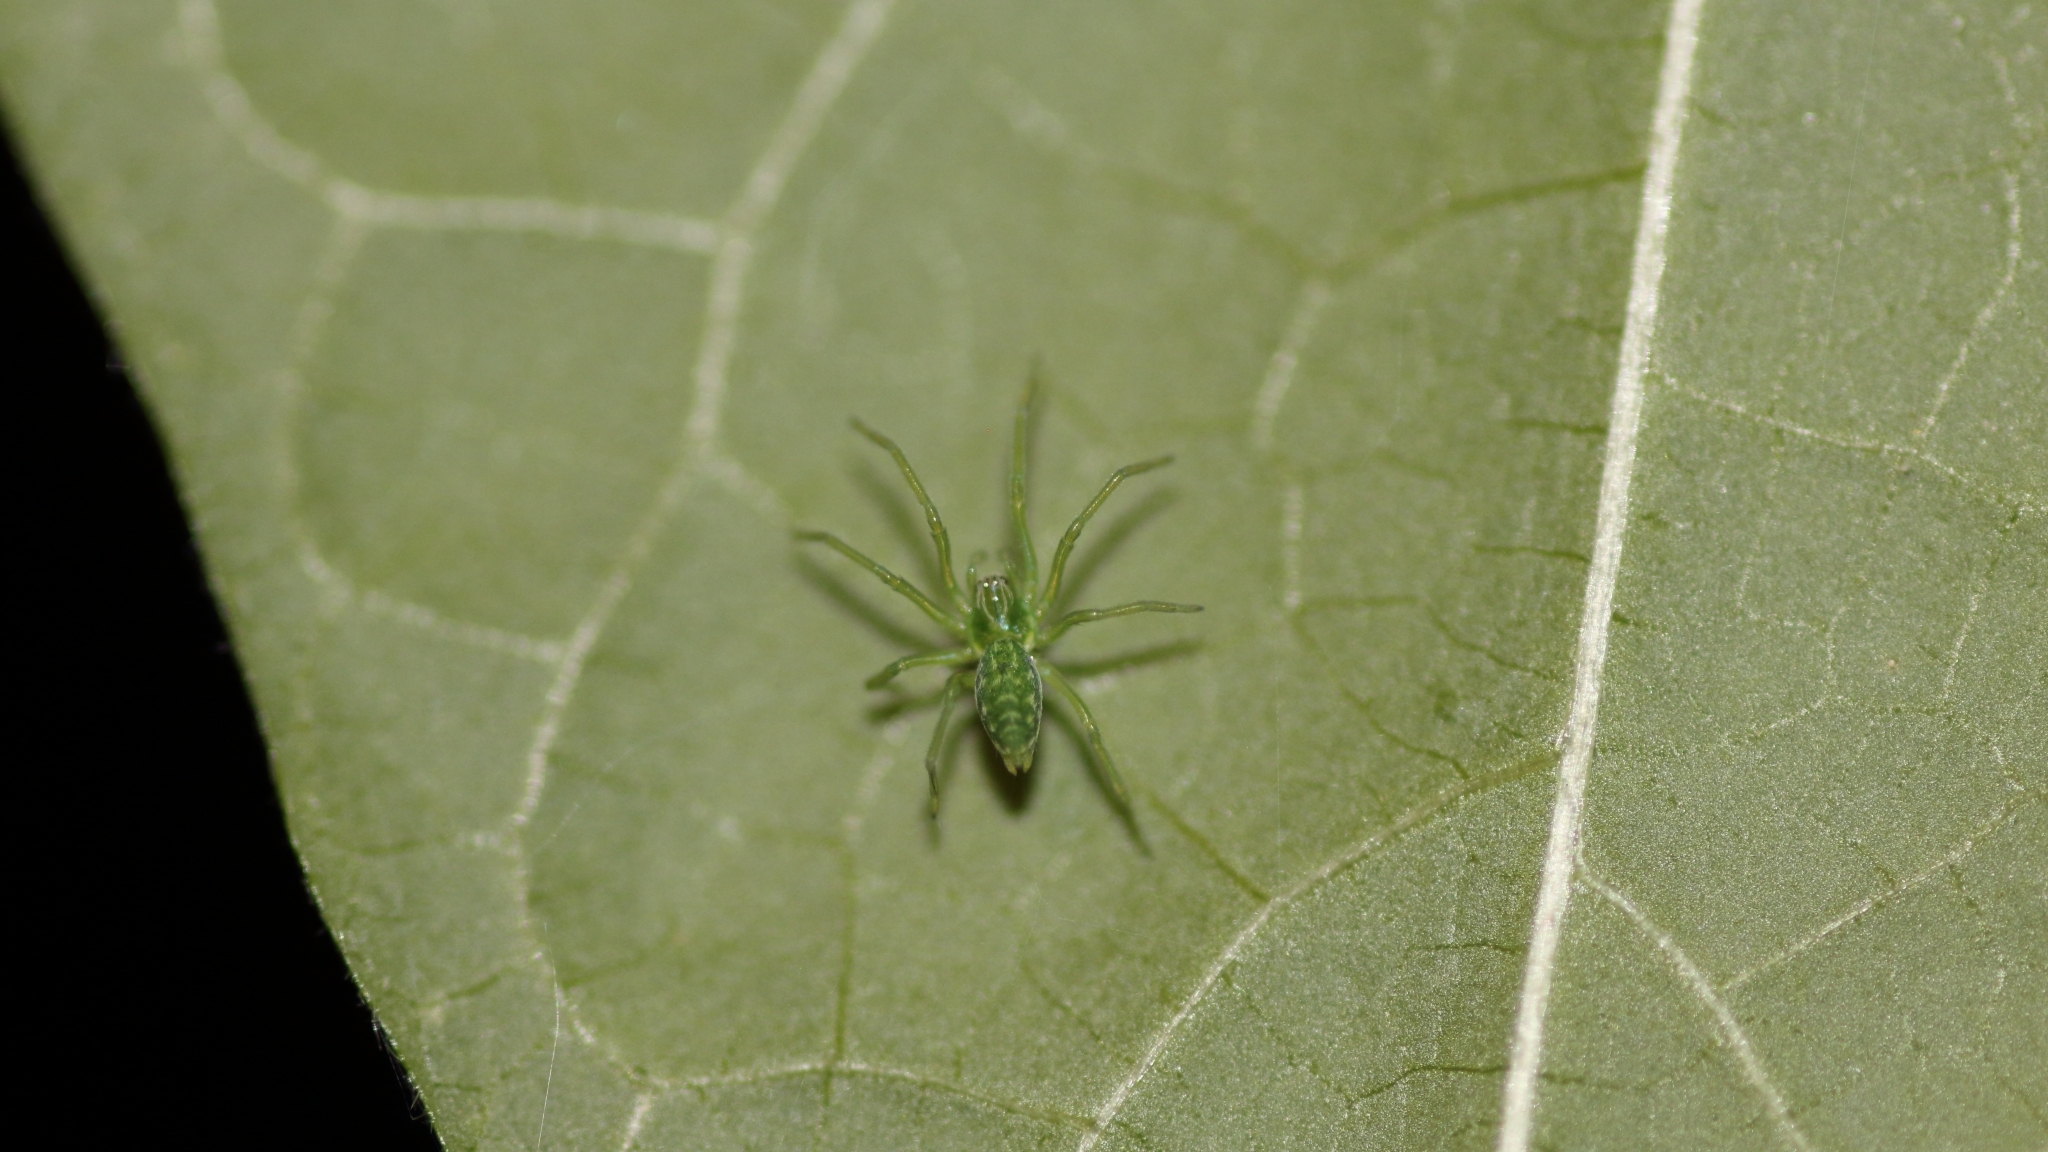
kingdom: Animalia
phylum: Arthropoda
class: Arachnida
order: Araneae
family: Dictynidae
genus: Nigma
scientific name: Nigma walckenaeri
